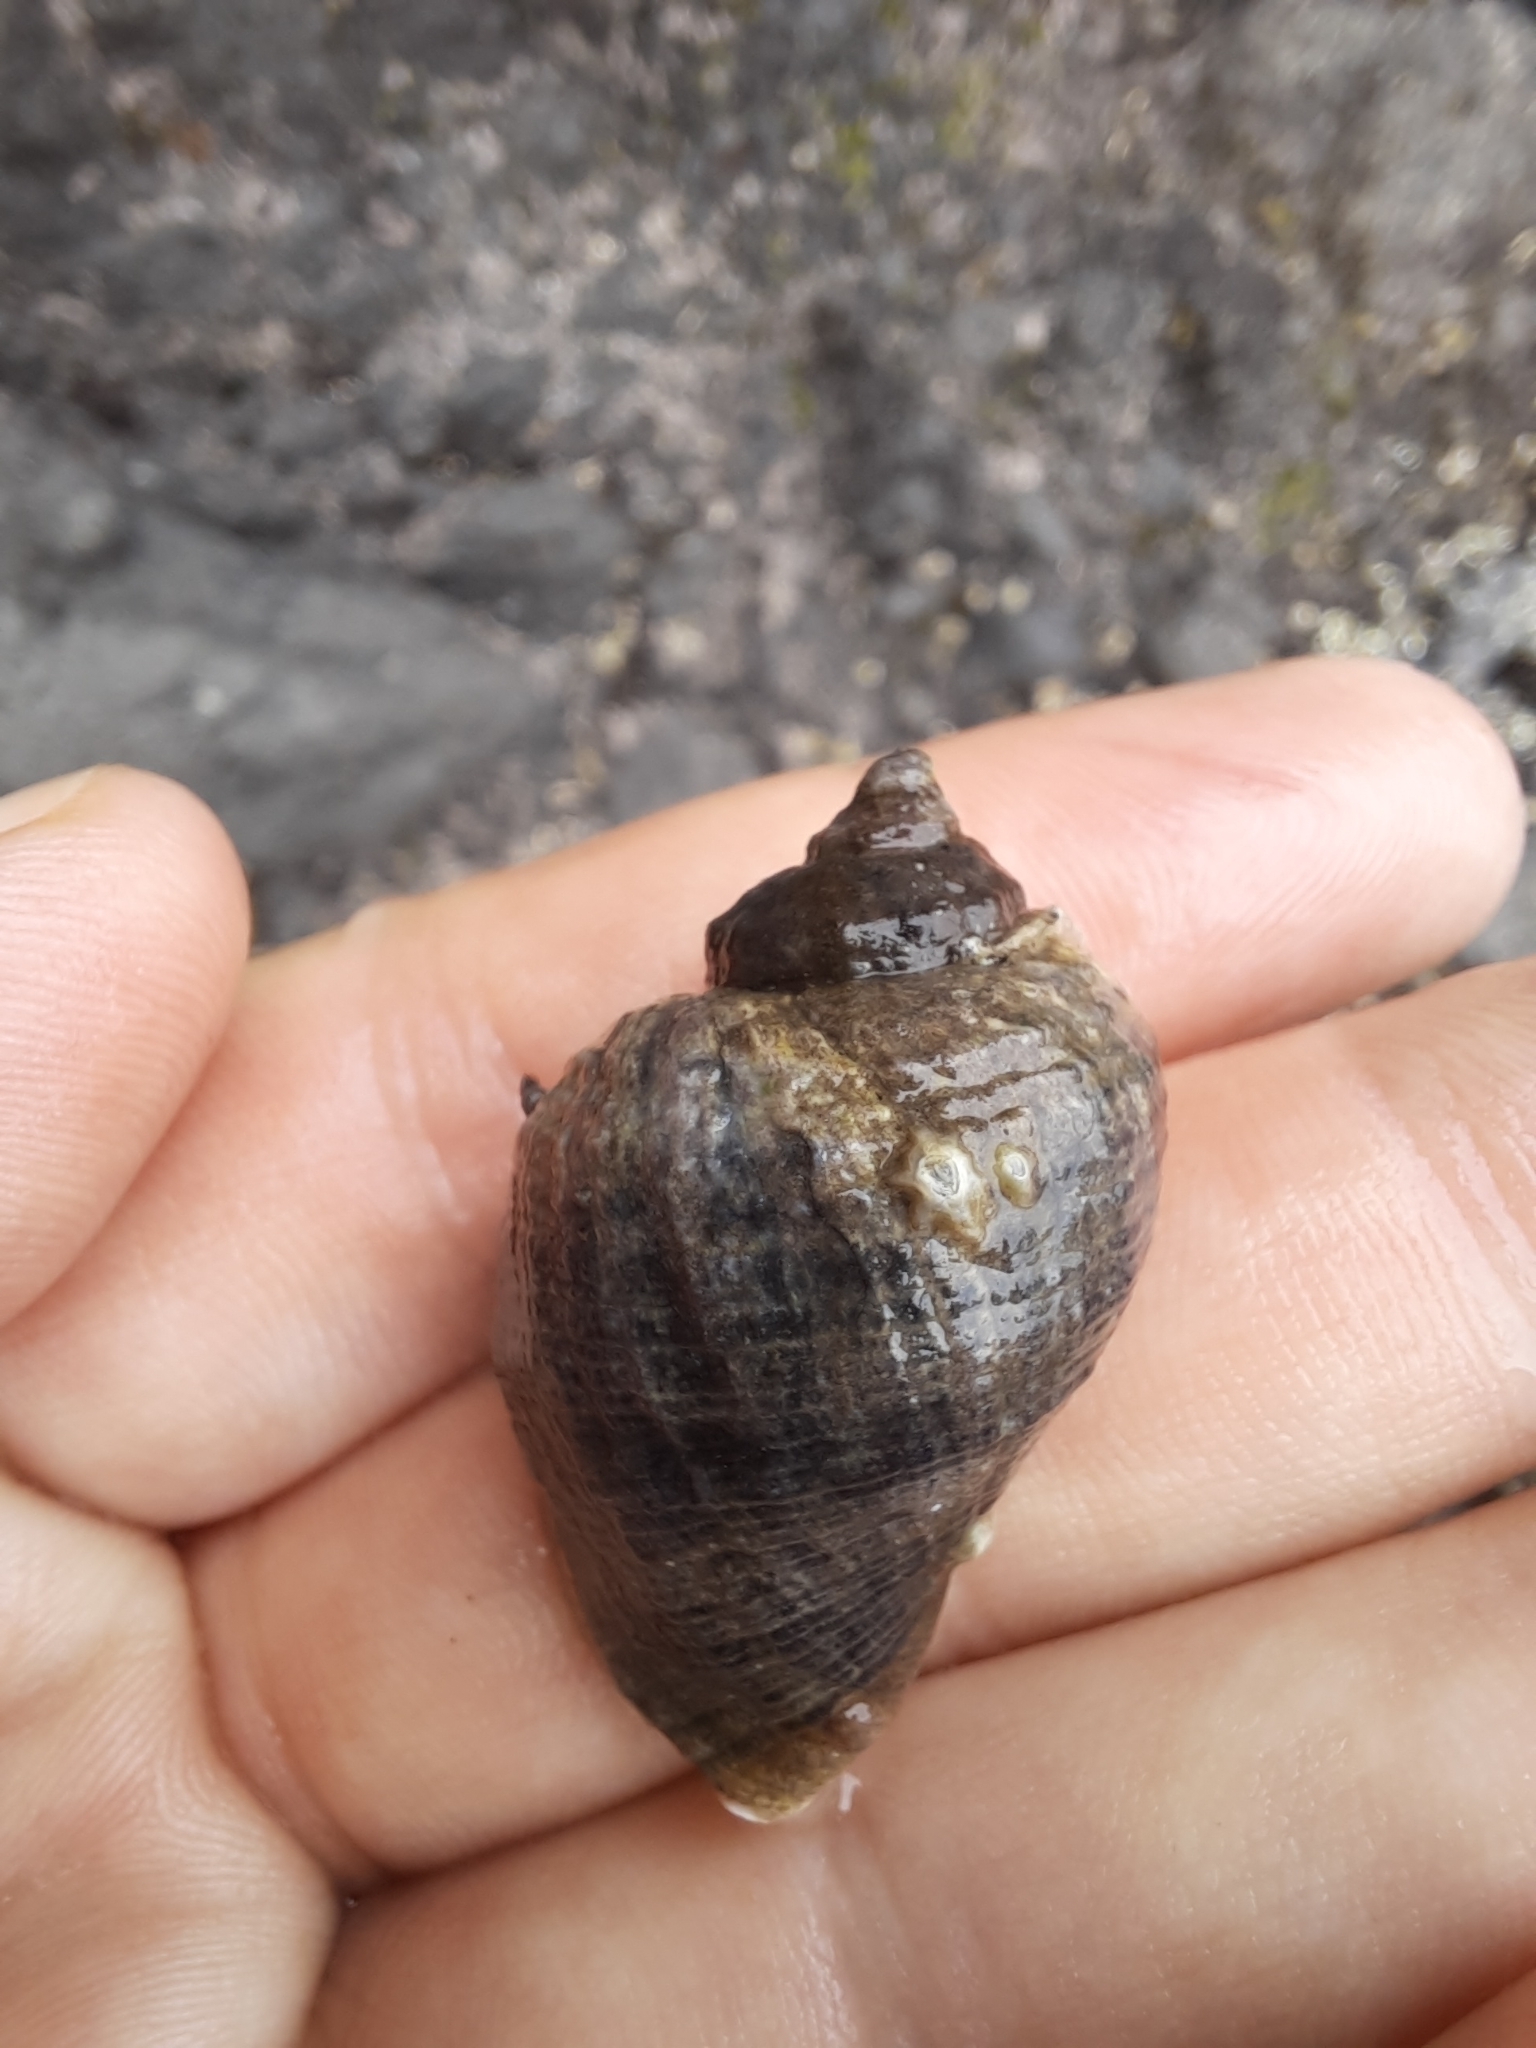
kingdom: Animalia
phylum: Mollusca
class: Gastropoda
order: Neogastropoda
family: Muricidae
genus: Haustrum
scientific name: Haustrum haustorium
